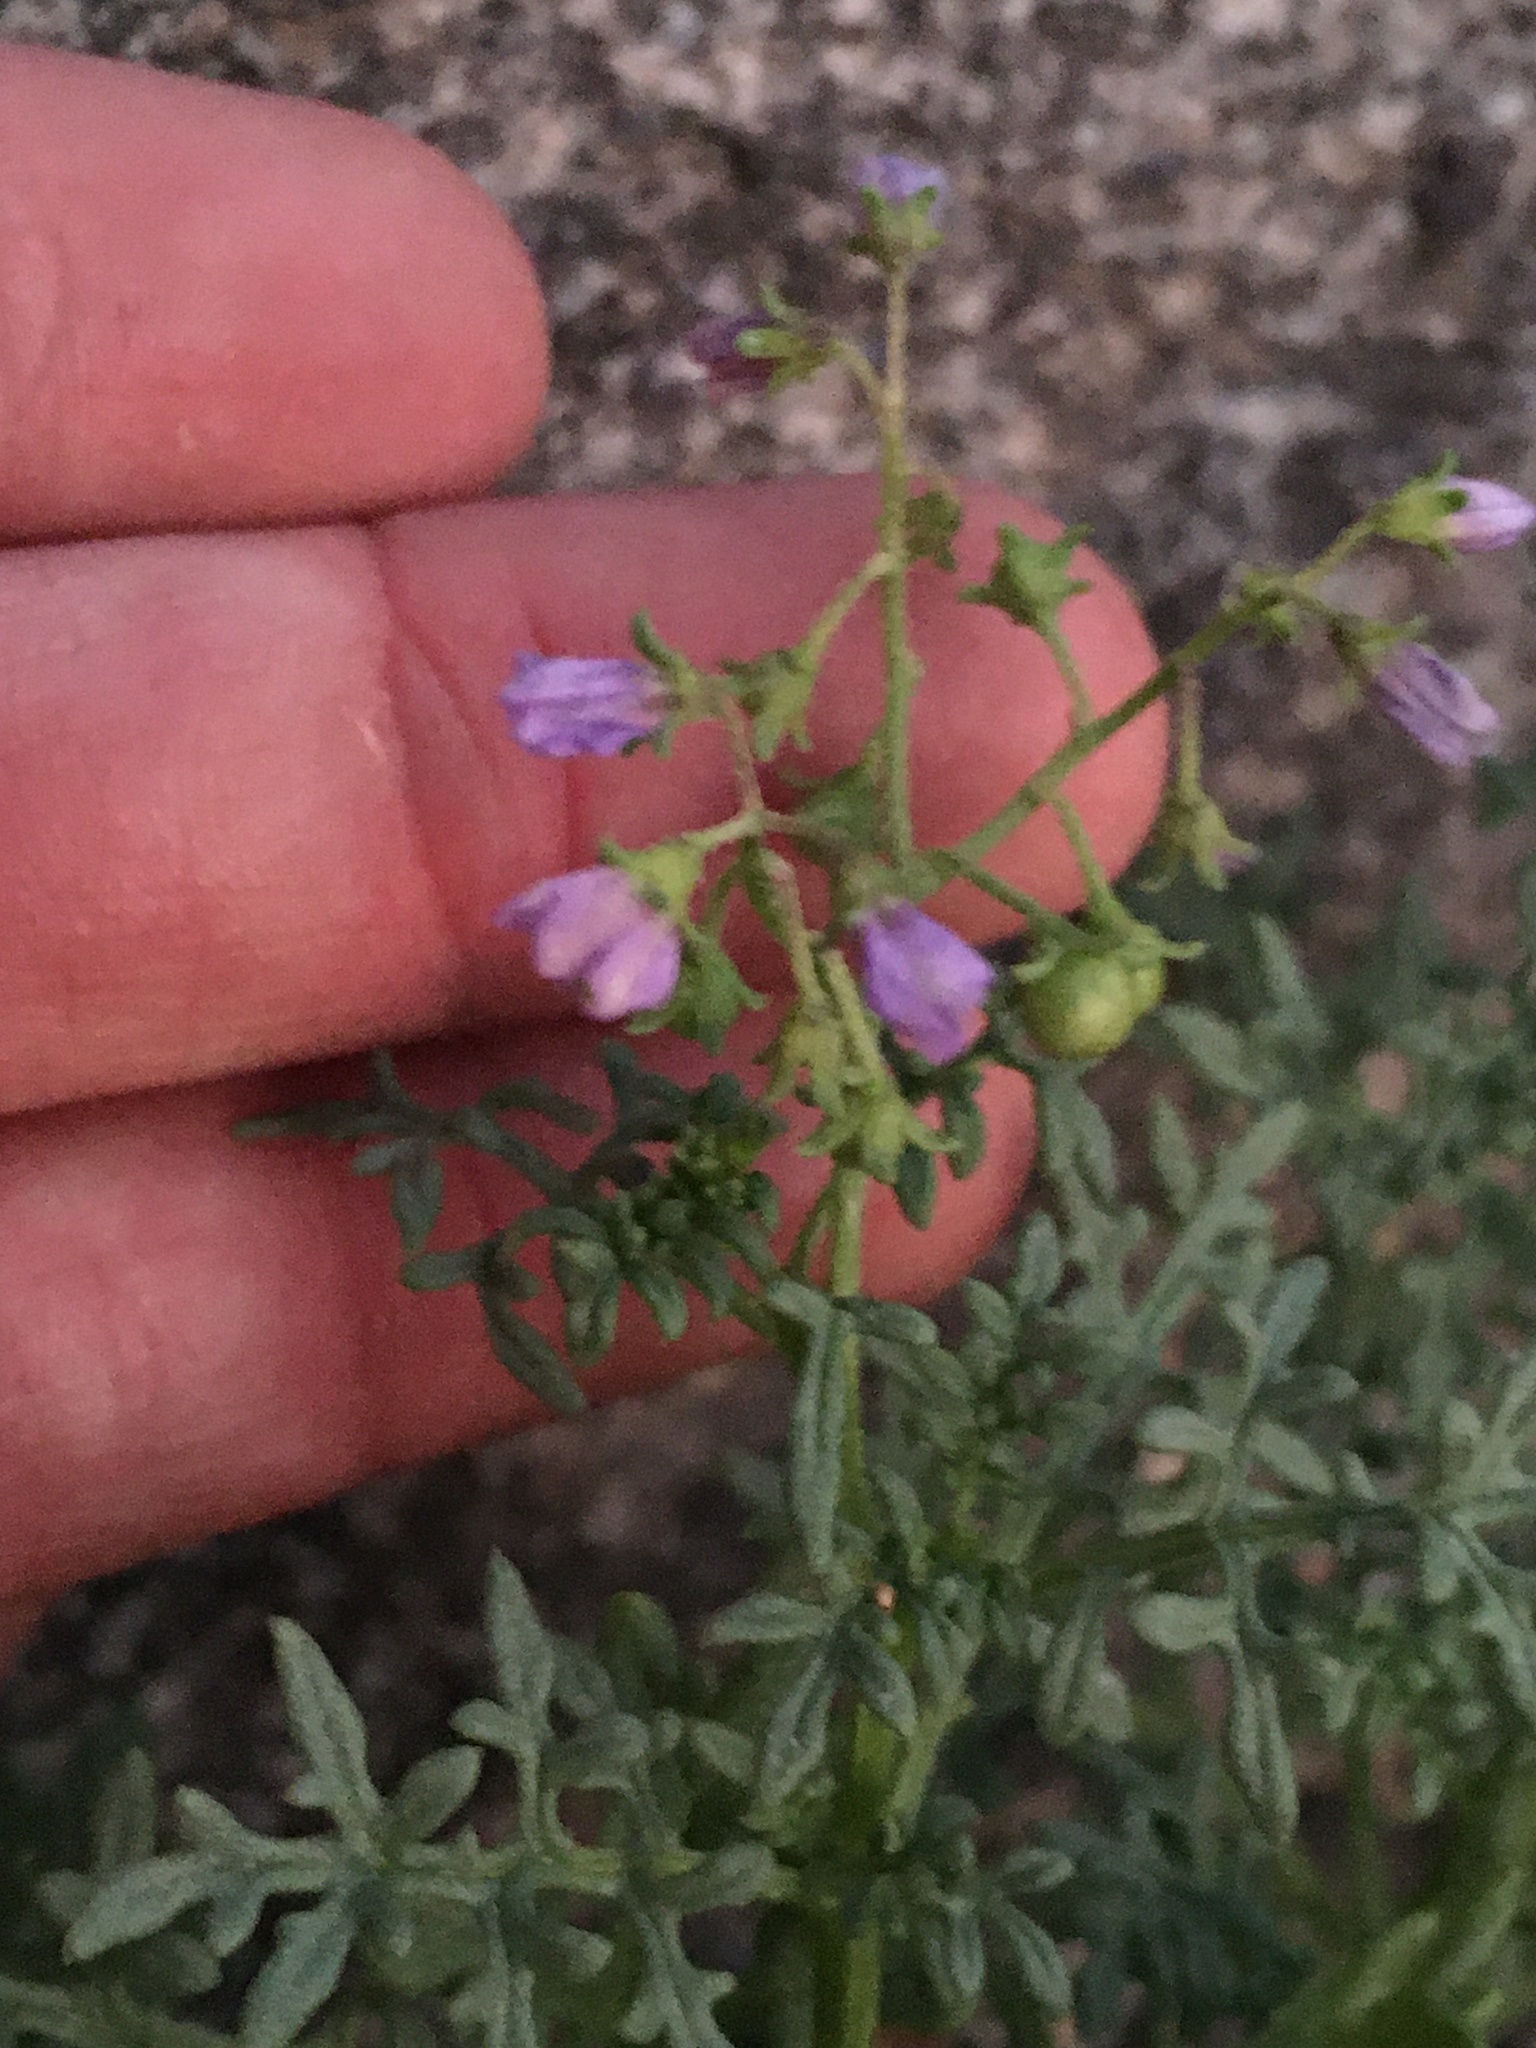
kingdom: Plantae
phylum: Tracheophyta
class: Magnoliopsida
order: Solanales
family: Solanaceae
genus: Solanum
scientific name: Solanum brachyantherum
